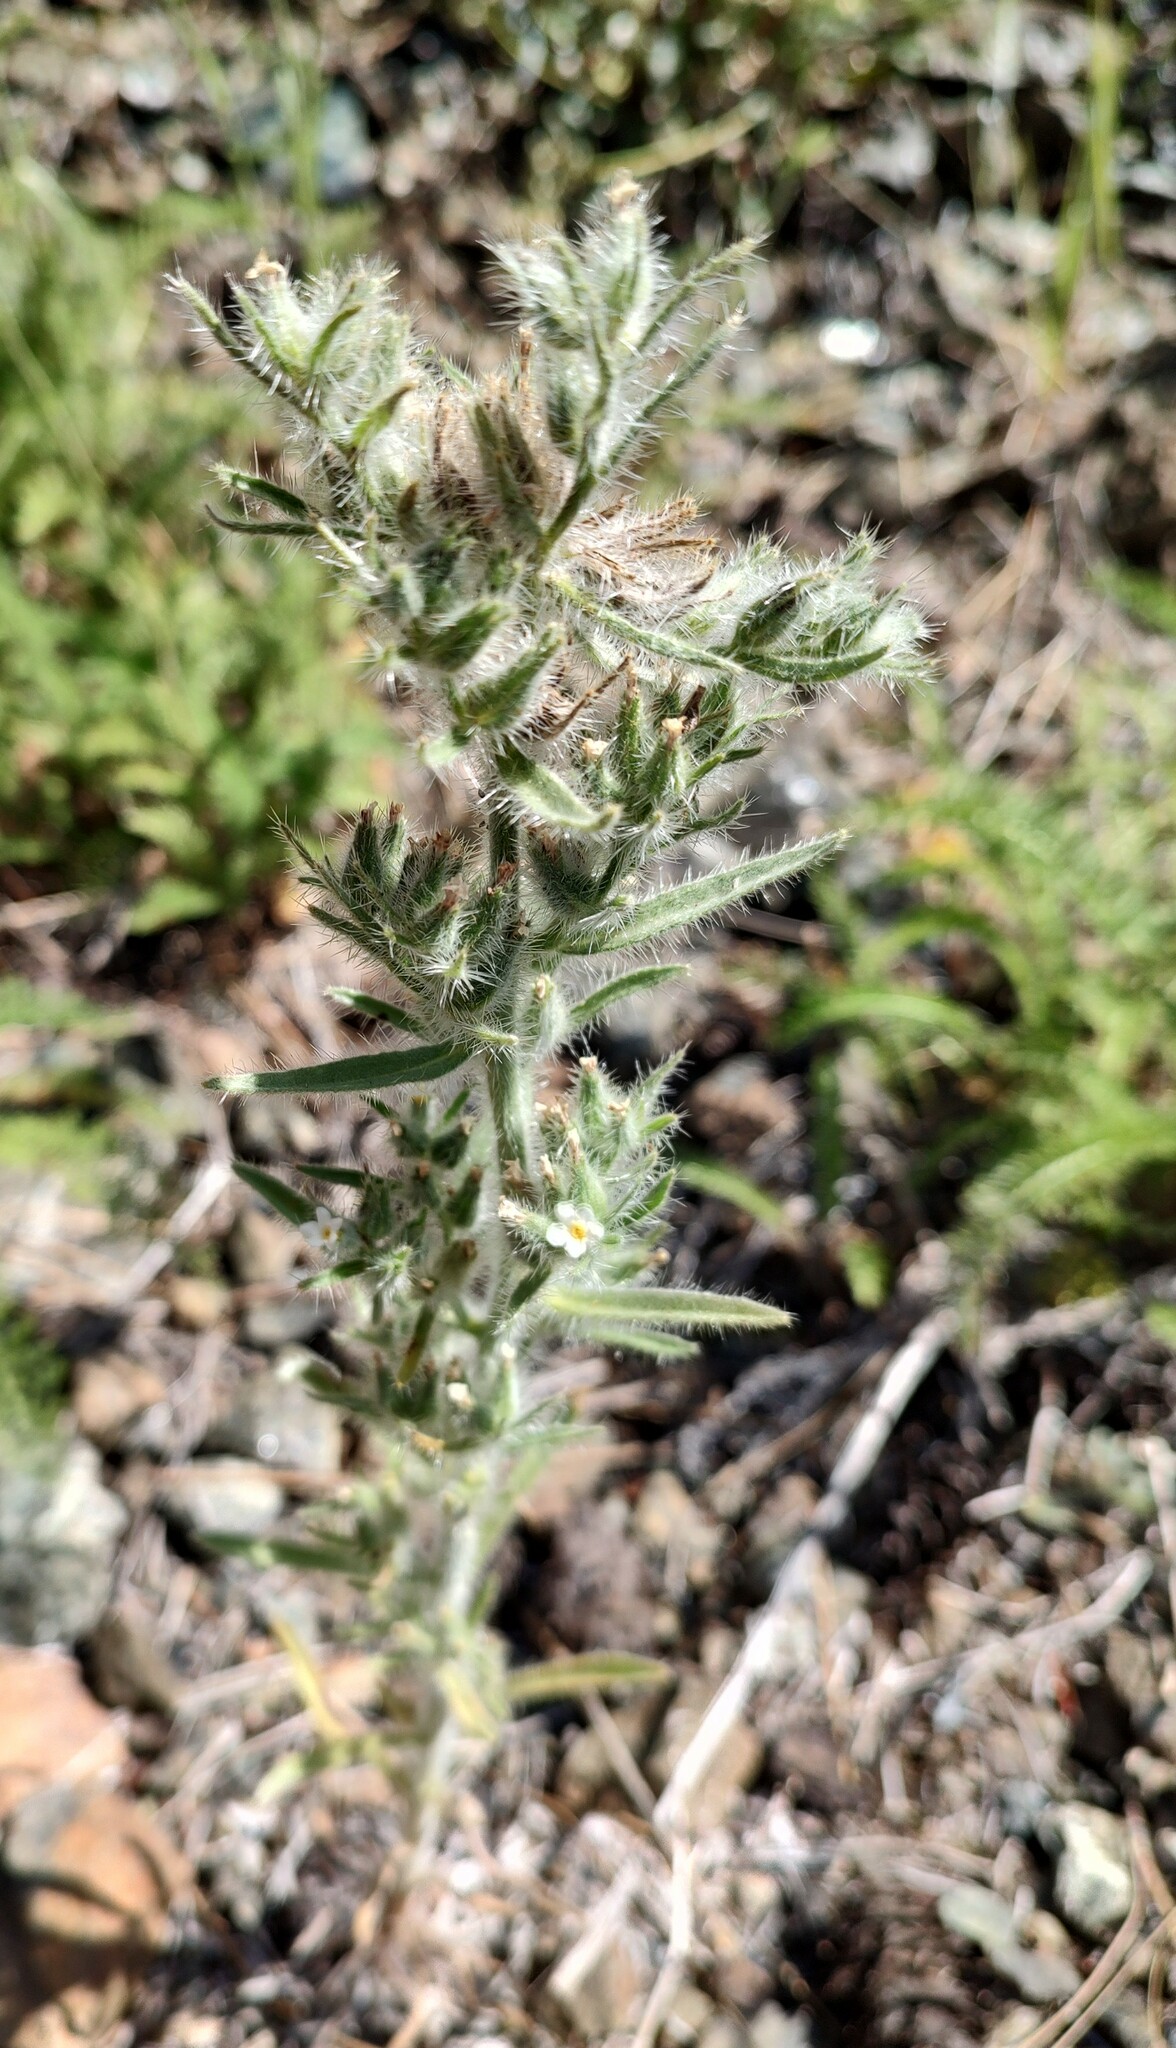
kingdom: Plantae
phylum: Tracheophyta
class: Magnoliopsida
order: Boraginales
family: Boraginaceae
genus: Oreocarya
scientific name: Oreocarya thompsonii
